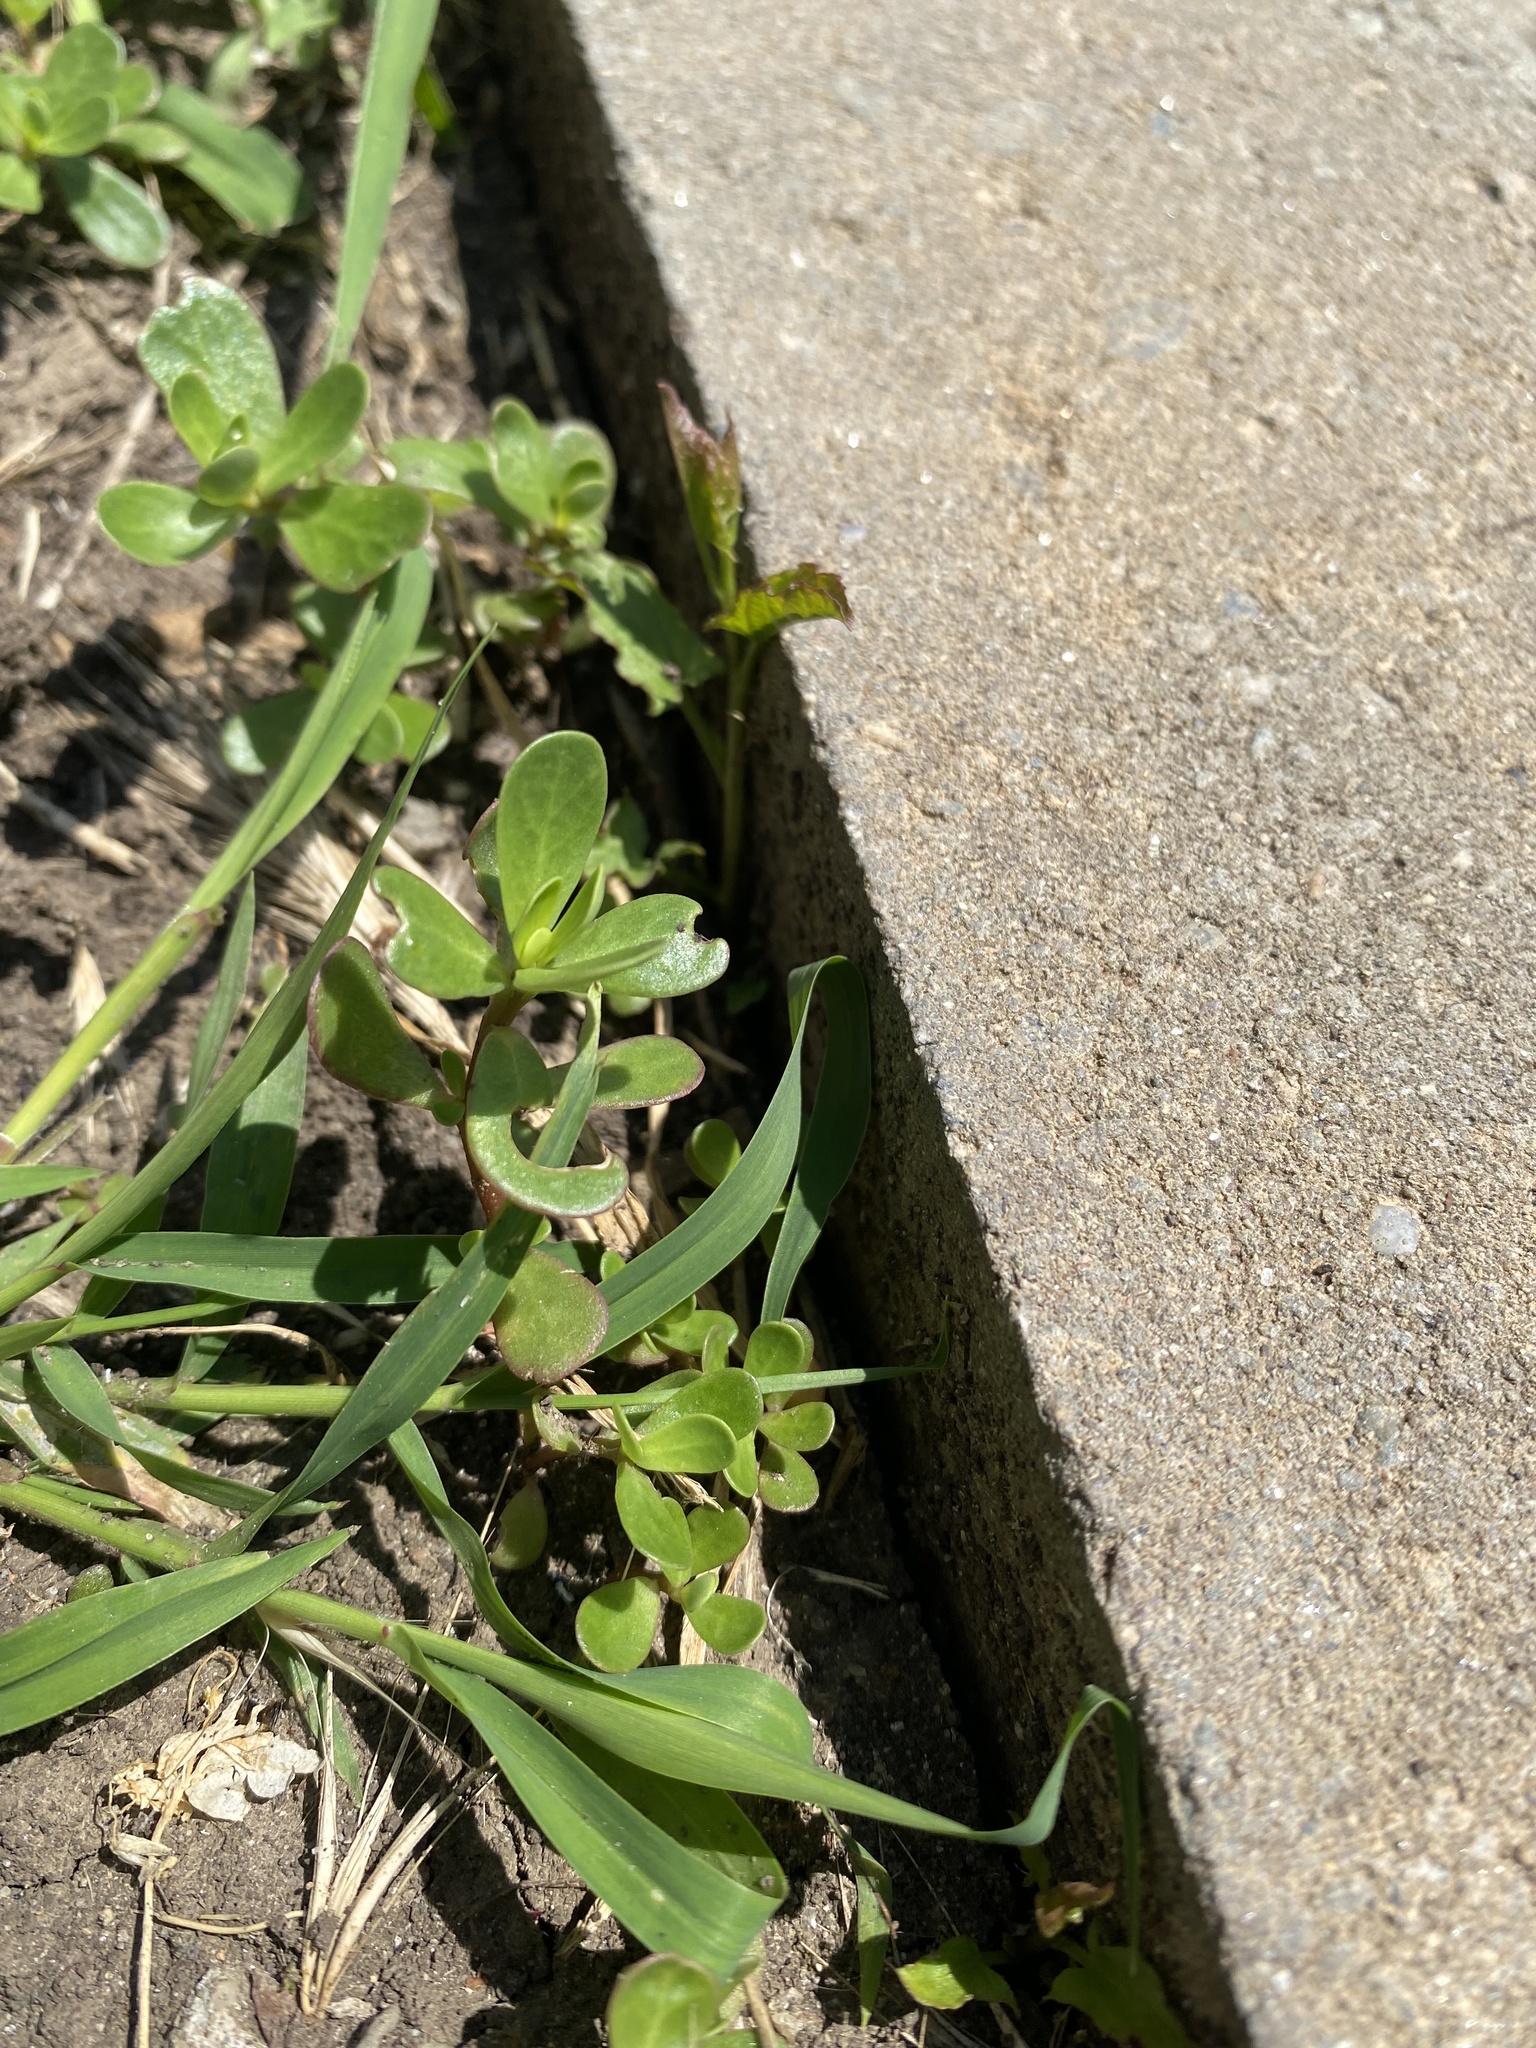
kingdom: Plantae
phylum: Tracheophyta
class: Magnoliopsida
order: Caryophyllales
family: Portulacaceae
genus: Portulaca
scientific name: Portulaca oleracea
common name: Common purslane
